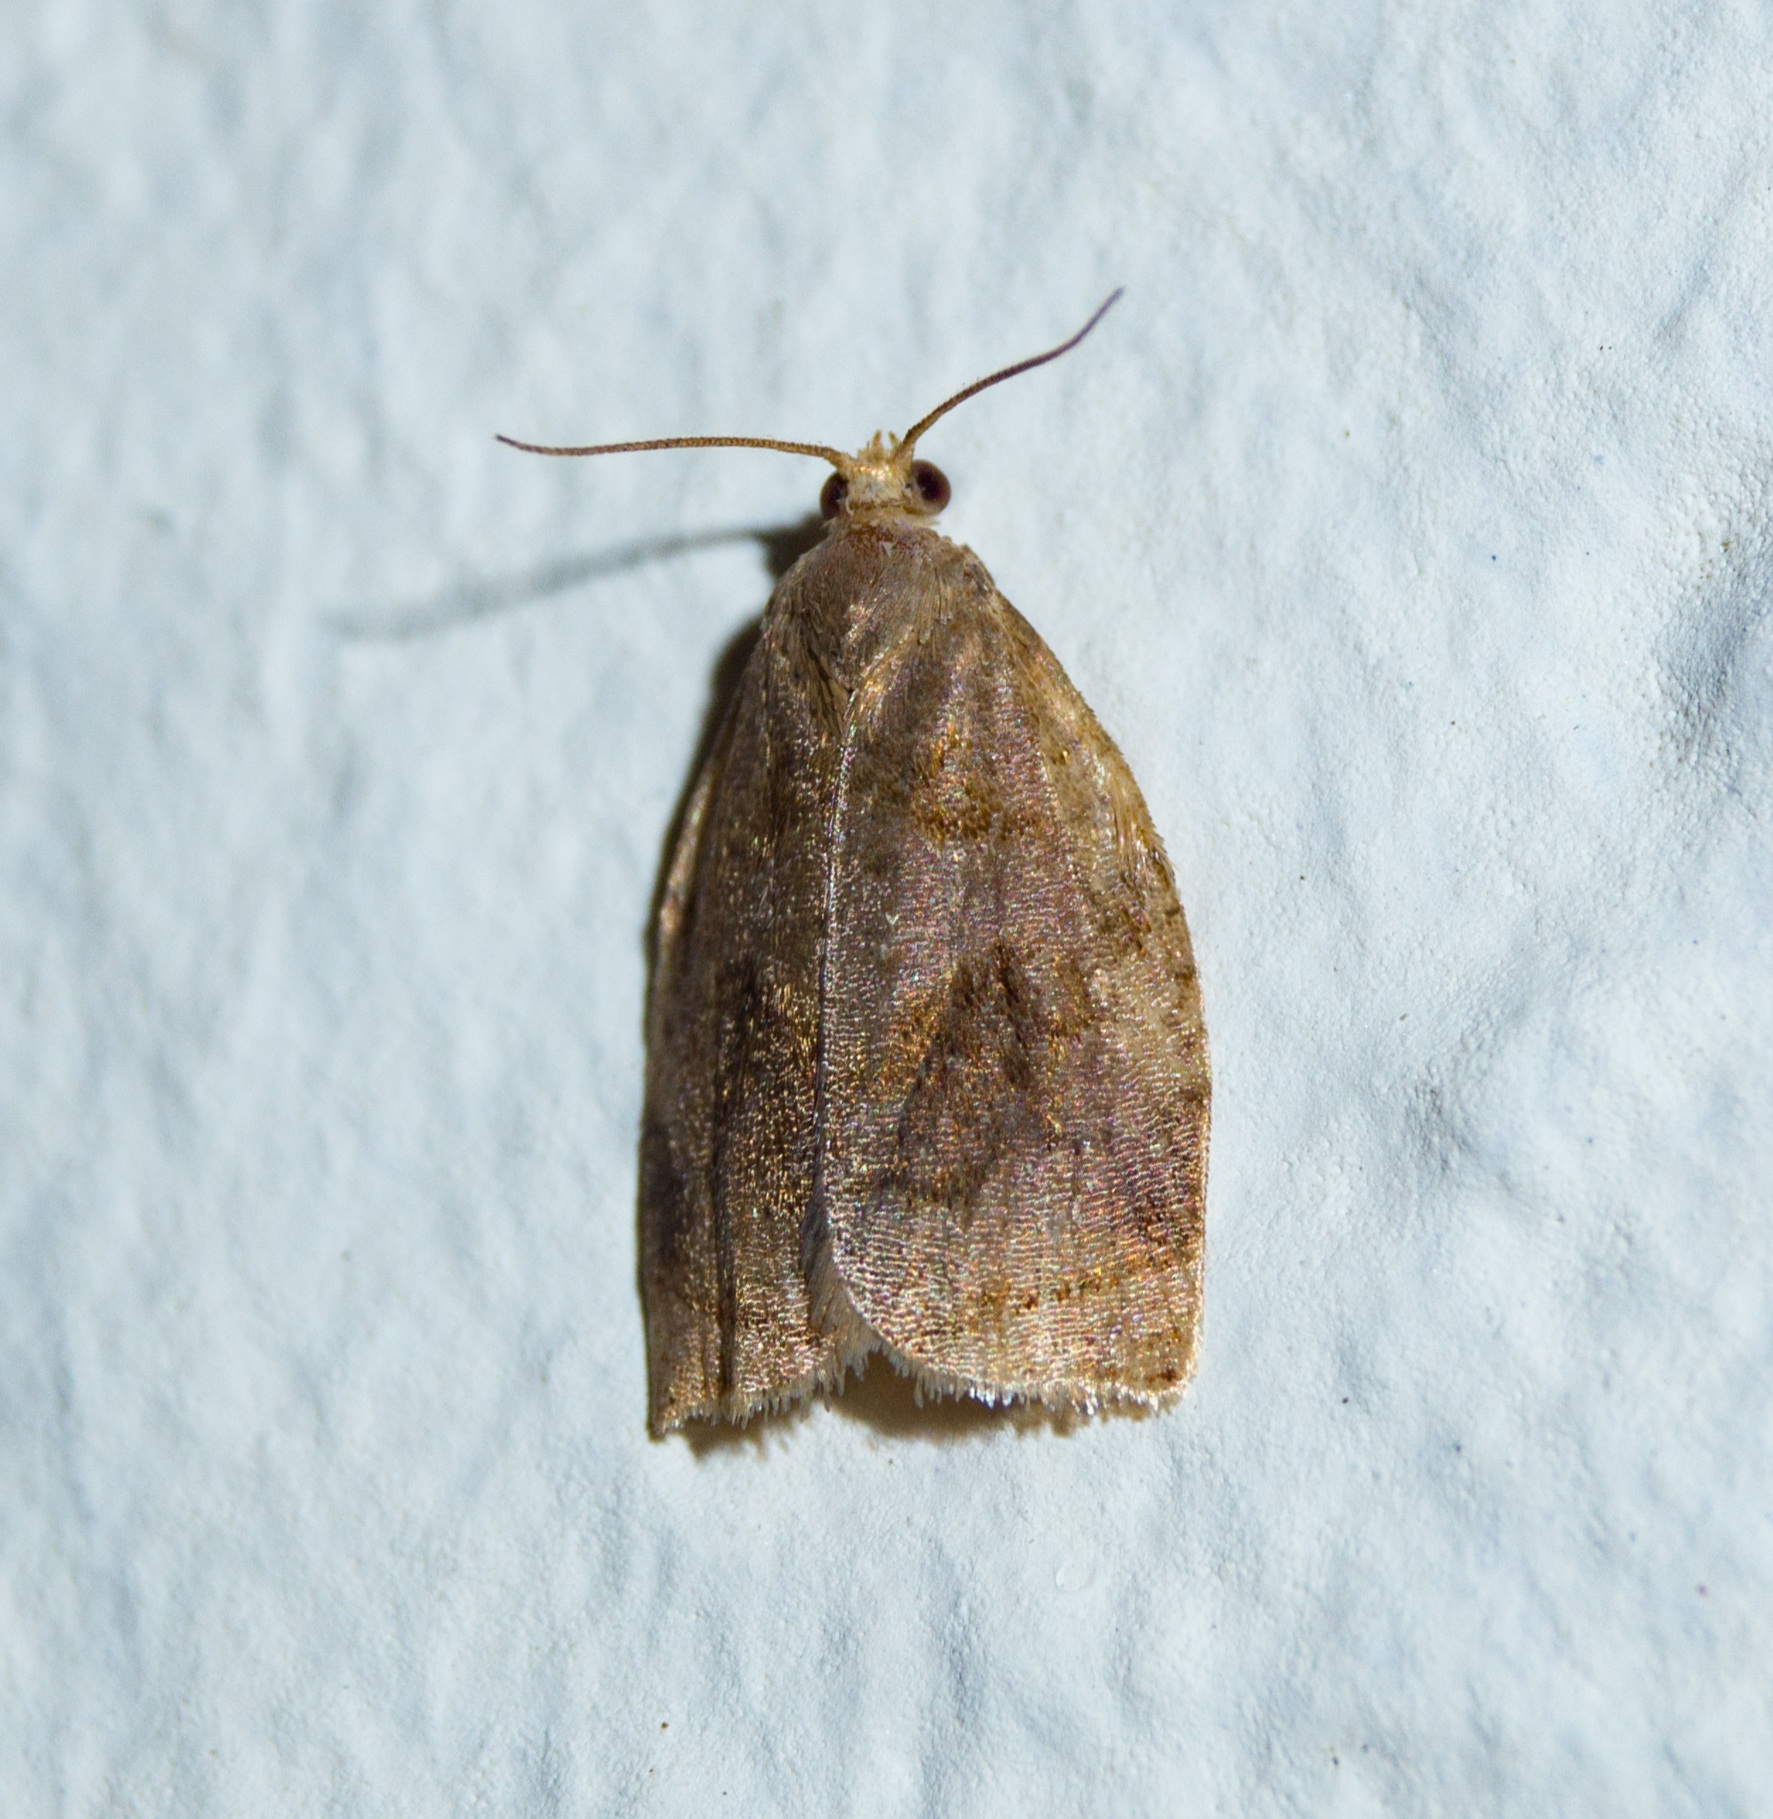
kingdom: Animalia
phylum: Arthropoda
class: Insecta
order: Lepidoptera
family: Tortricidae
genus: Archips
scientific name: Archips rosana
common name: Rose tortrix
